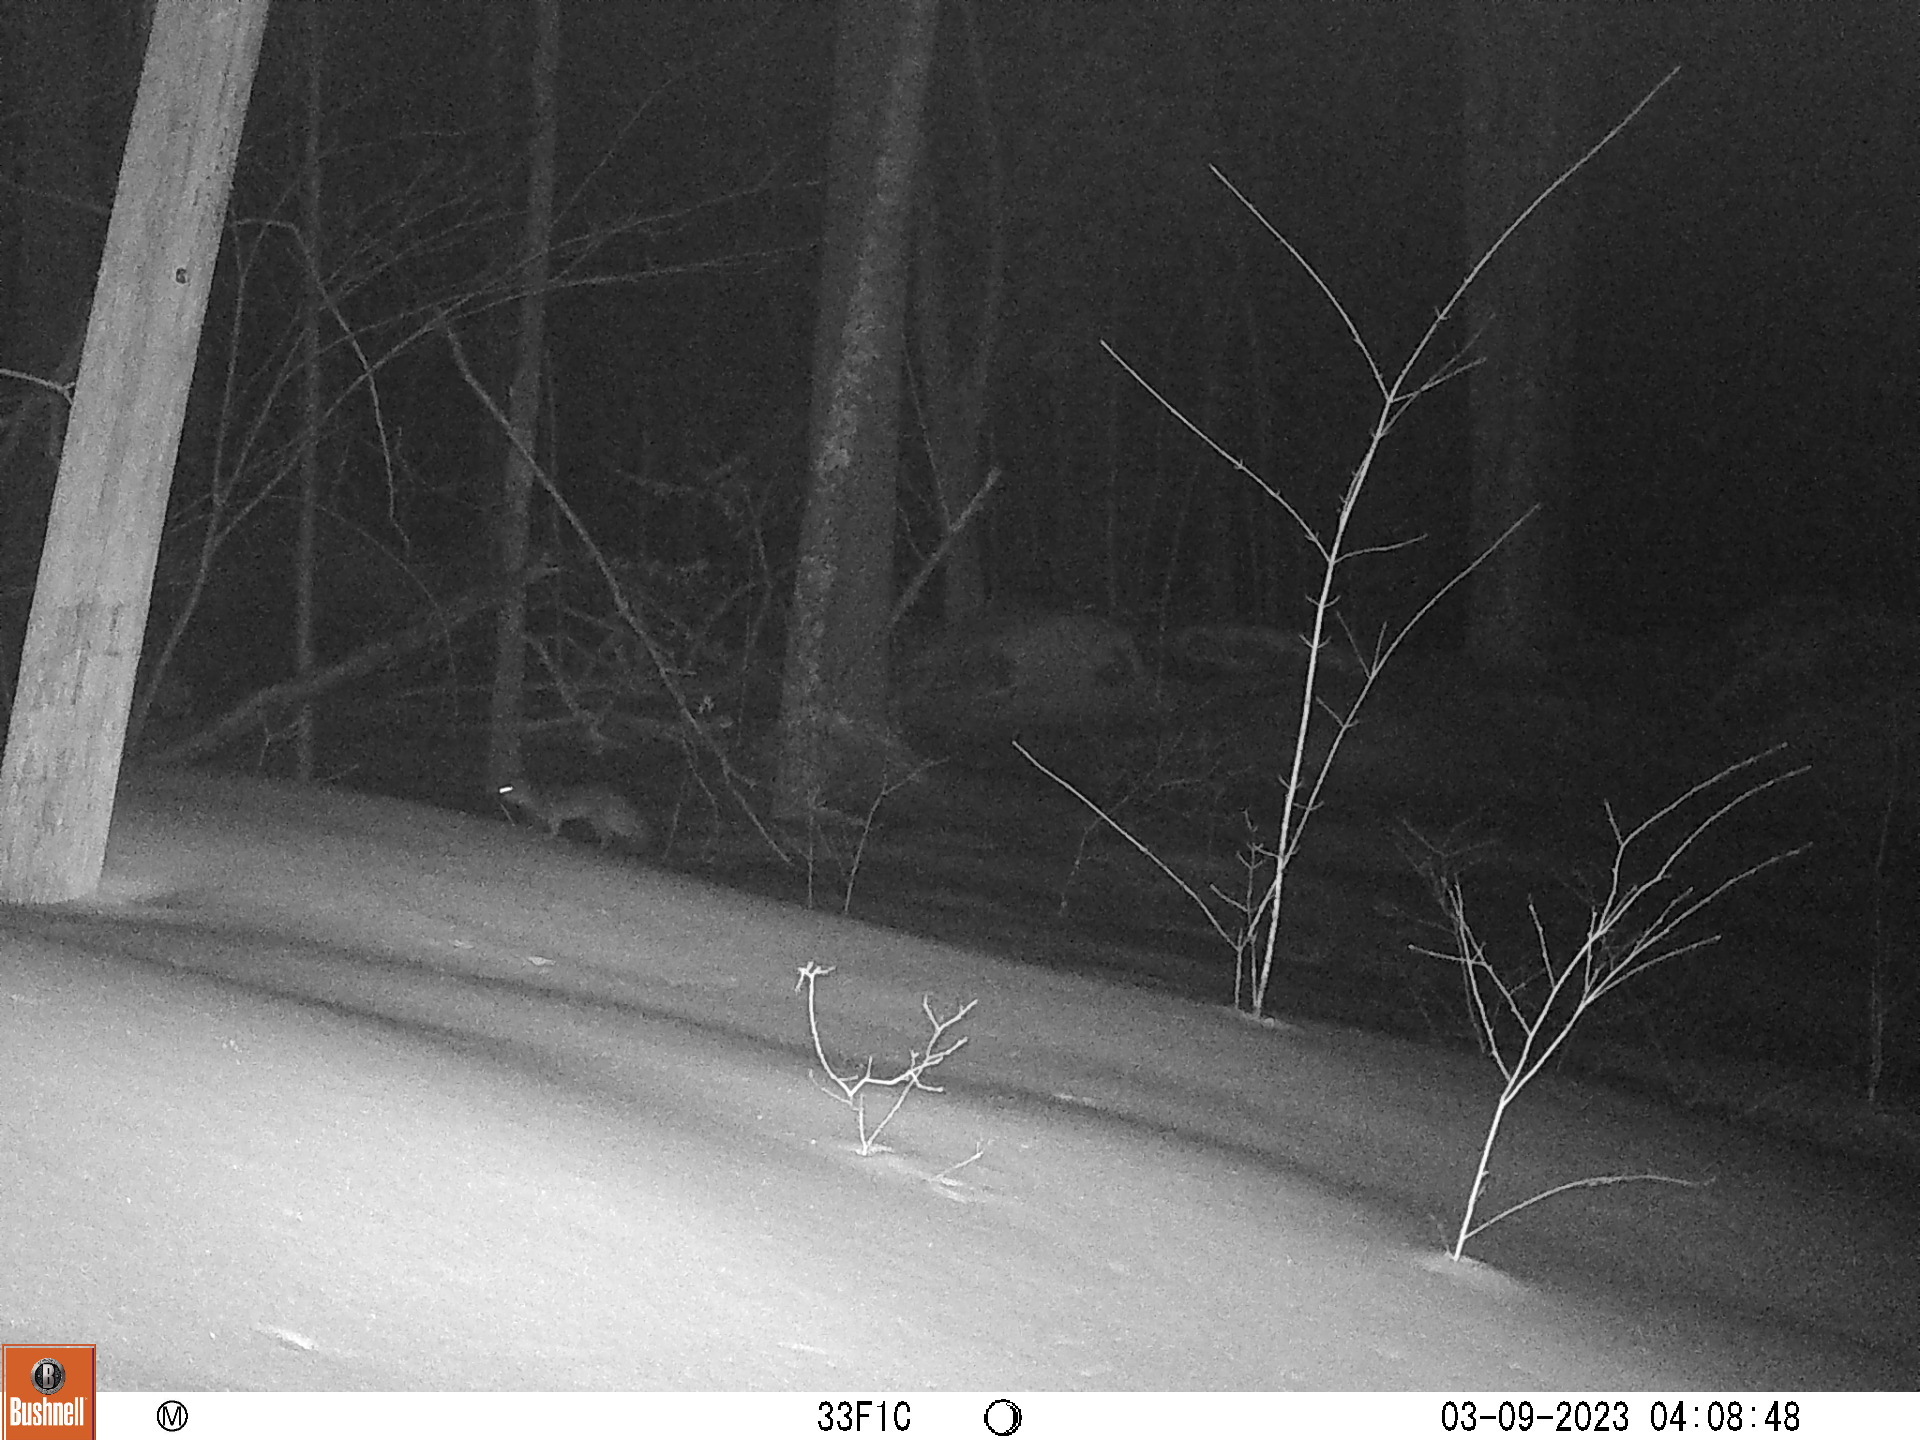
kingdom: Animalia
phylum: Chordata
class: Mammalia
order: Carnivora
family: Canidae
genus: Urocyon
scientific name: Urocyon cinereoargenteus
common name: Gray fox
